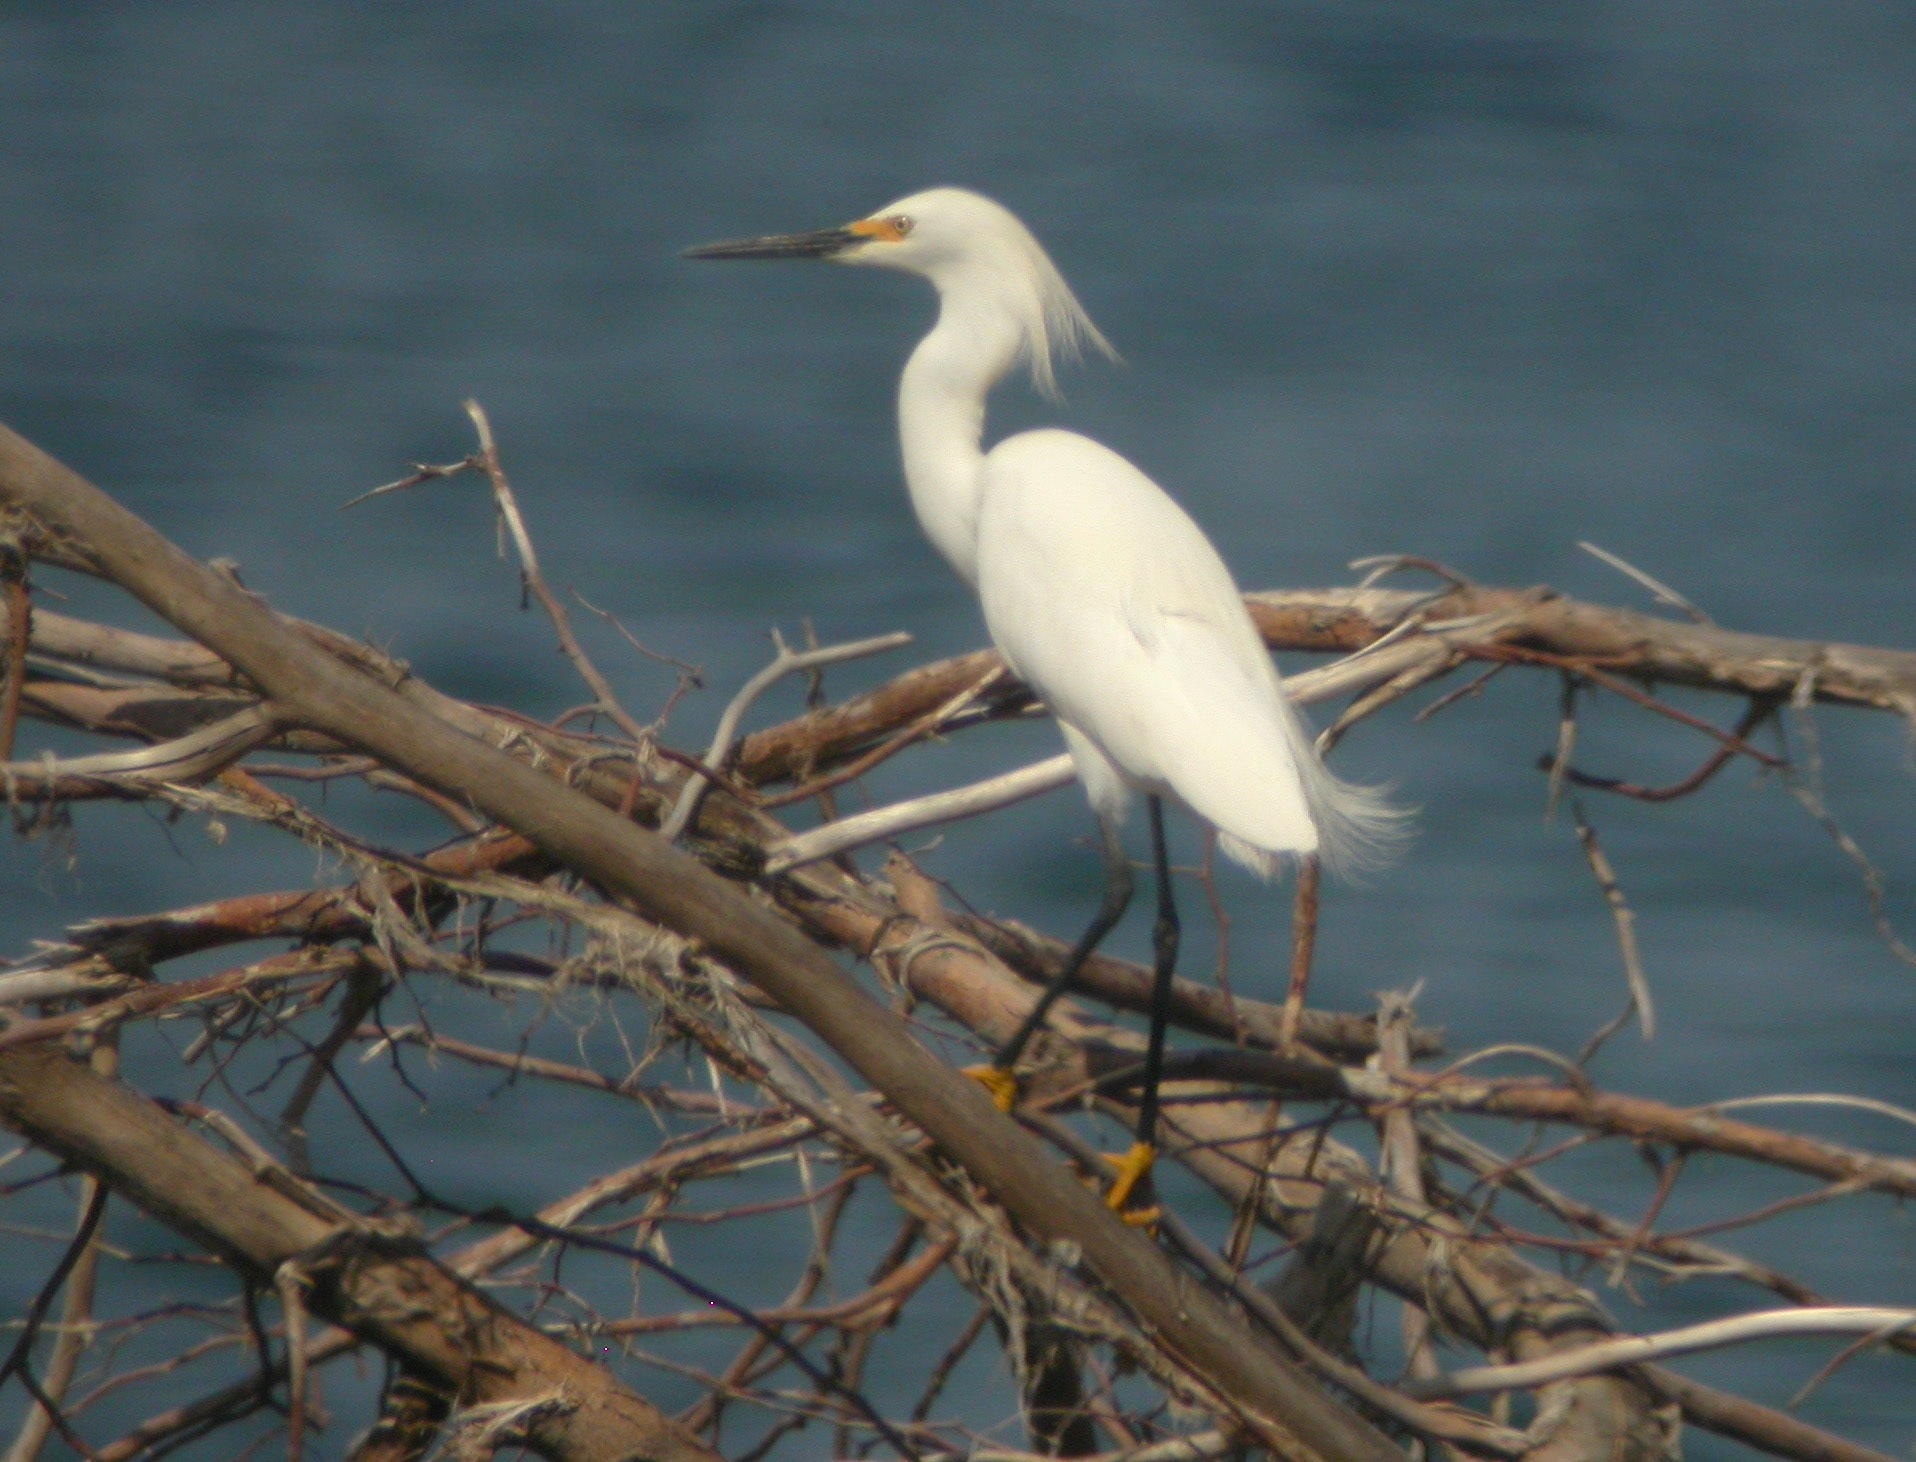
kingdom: Animalia
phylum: Chordata
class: Aves
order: Pelecaniformes
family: Ardeidae
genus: Egretta
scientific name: Egretta thula
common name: Snowy egret
